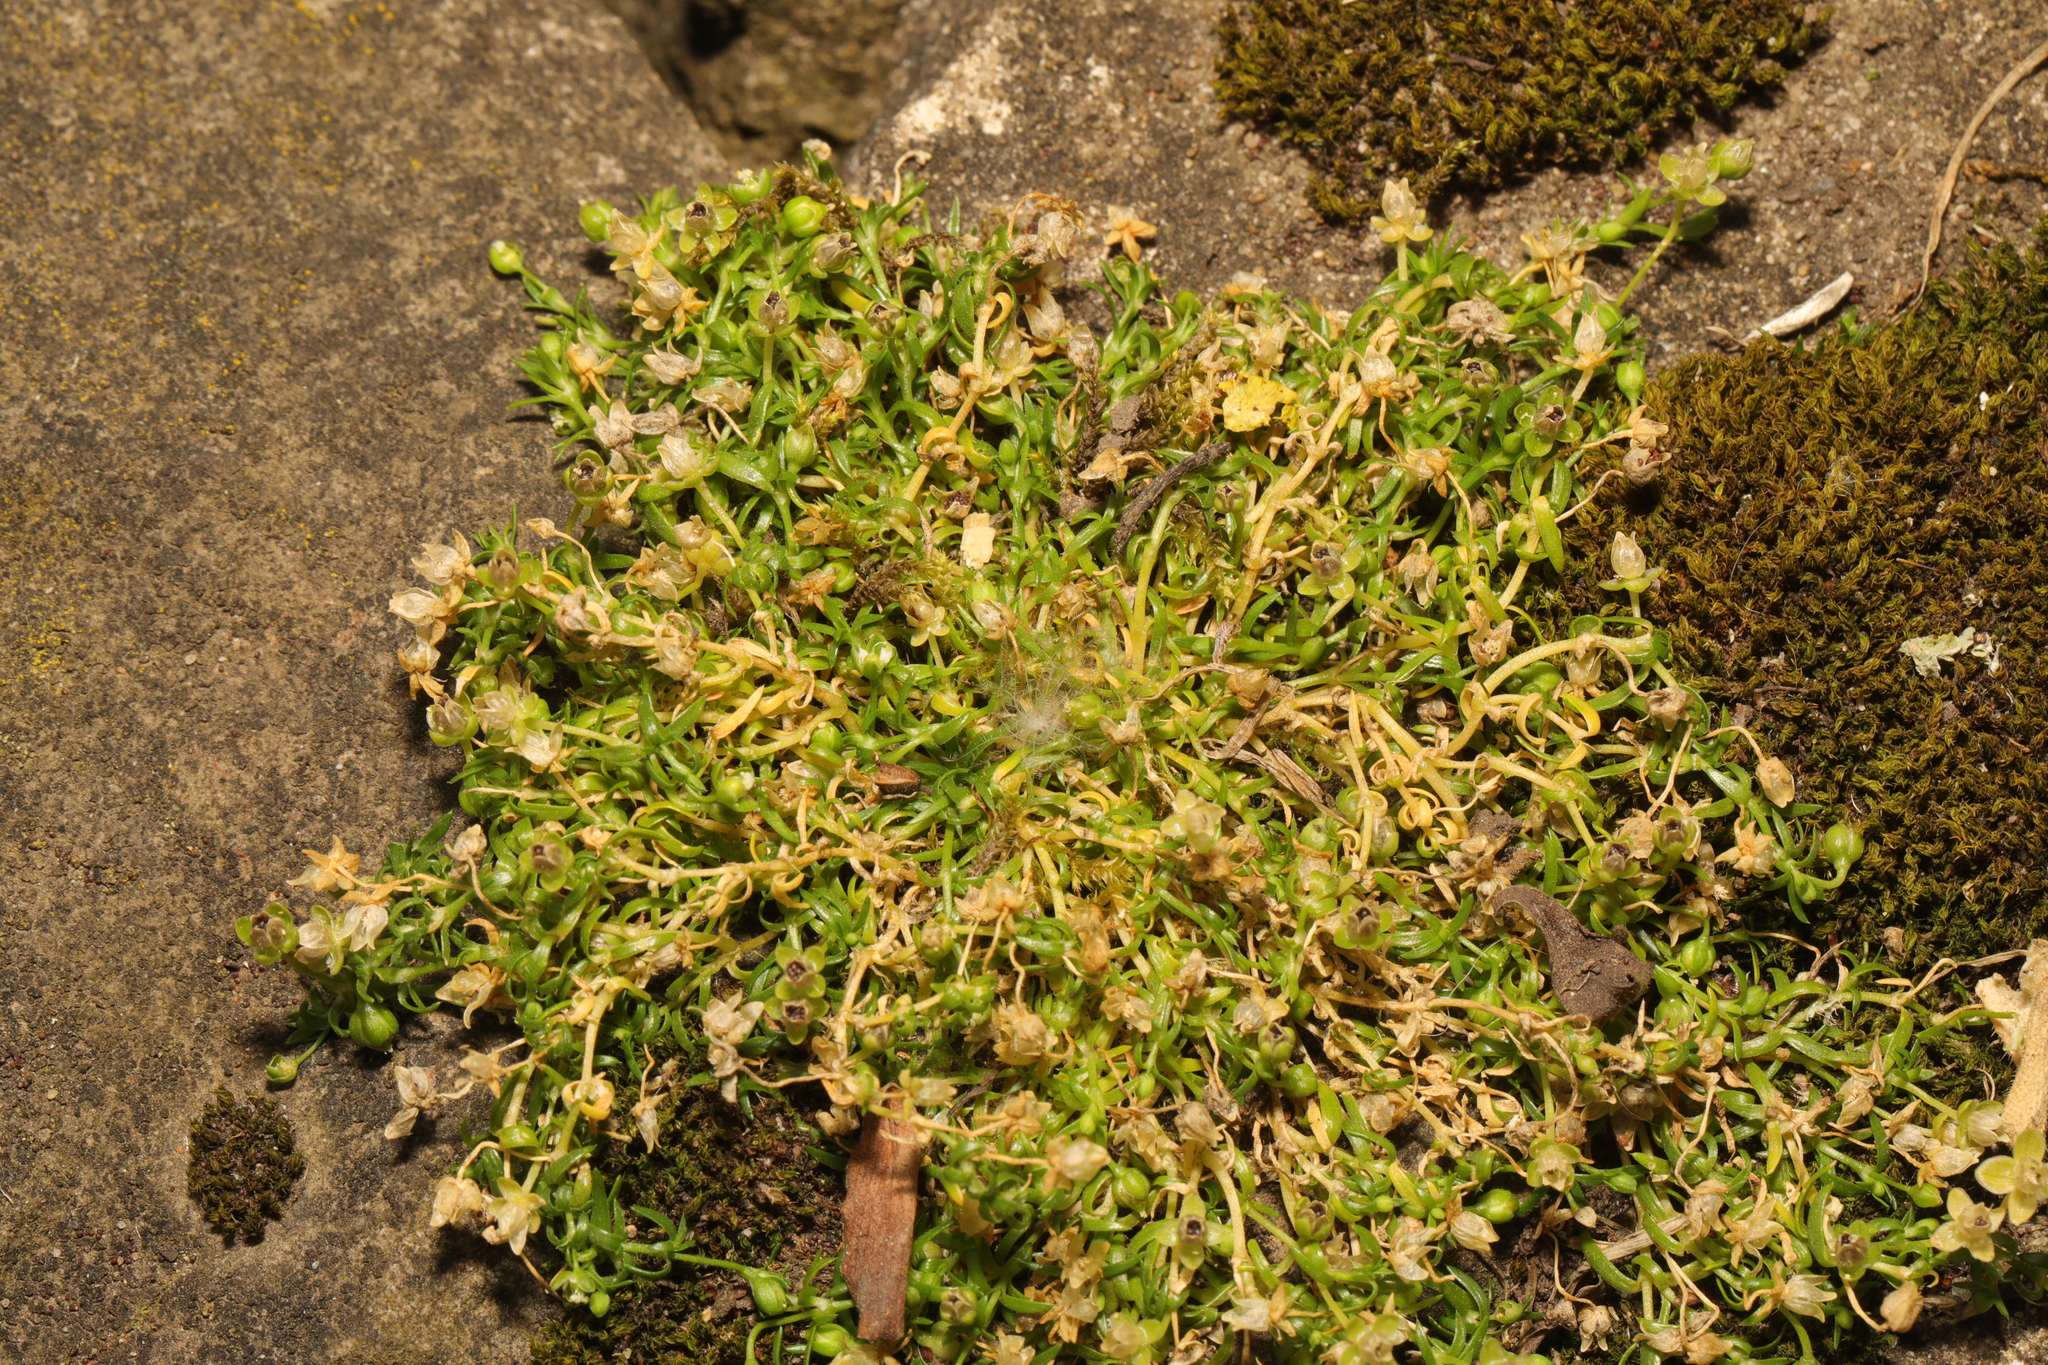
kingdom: Plantae
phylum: Tracheophyta
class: Magnoliopsida
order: Caryophyllales
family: Caryophyllaceae
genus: Sagina
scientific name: Sagina procumbens
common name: Procumbent pearlwort
